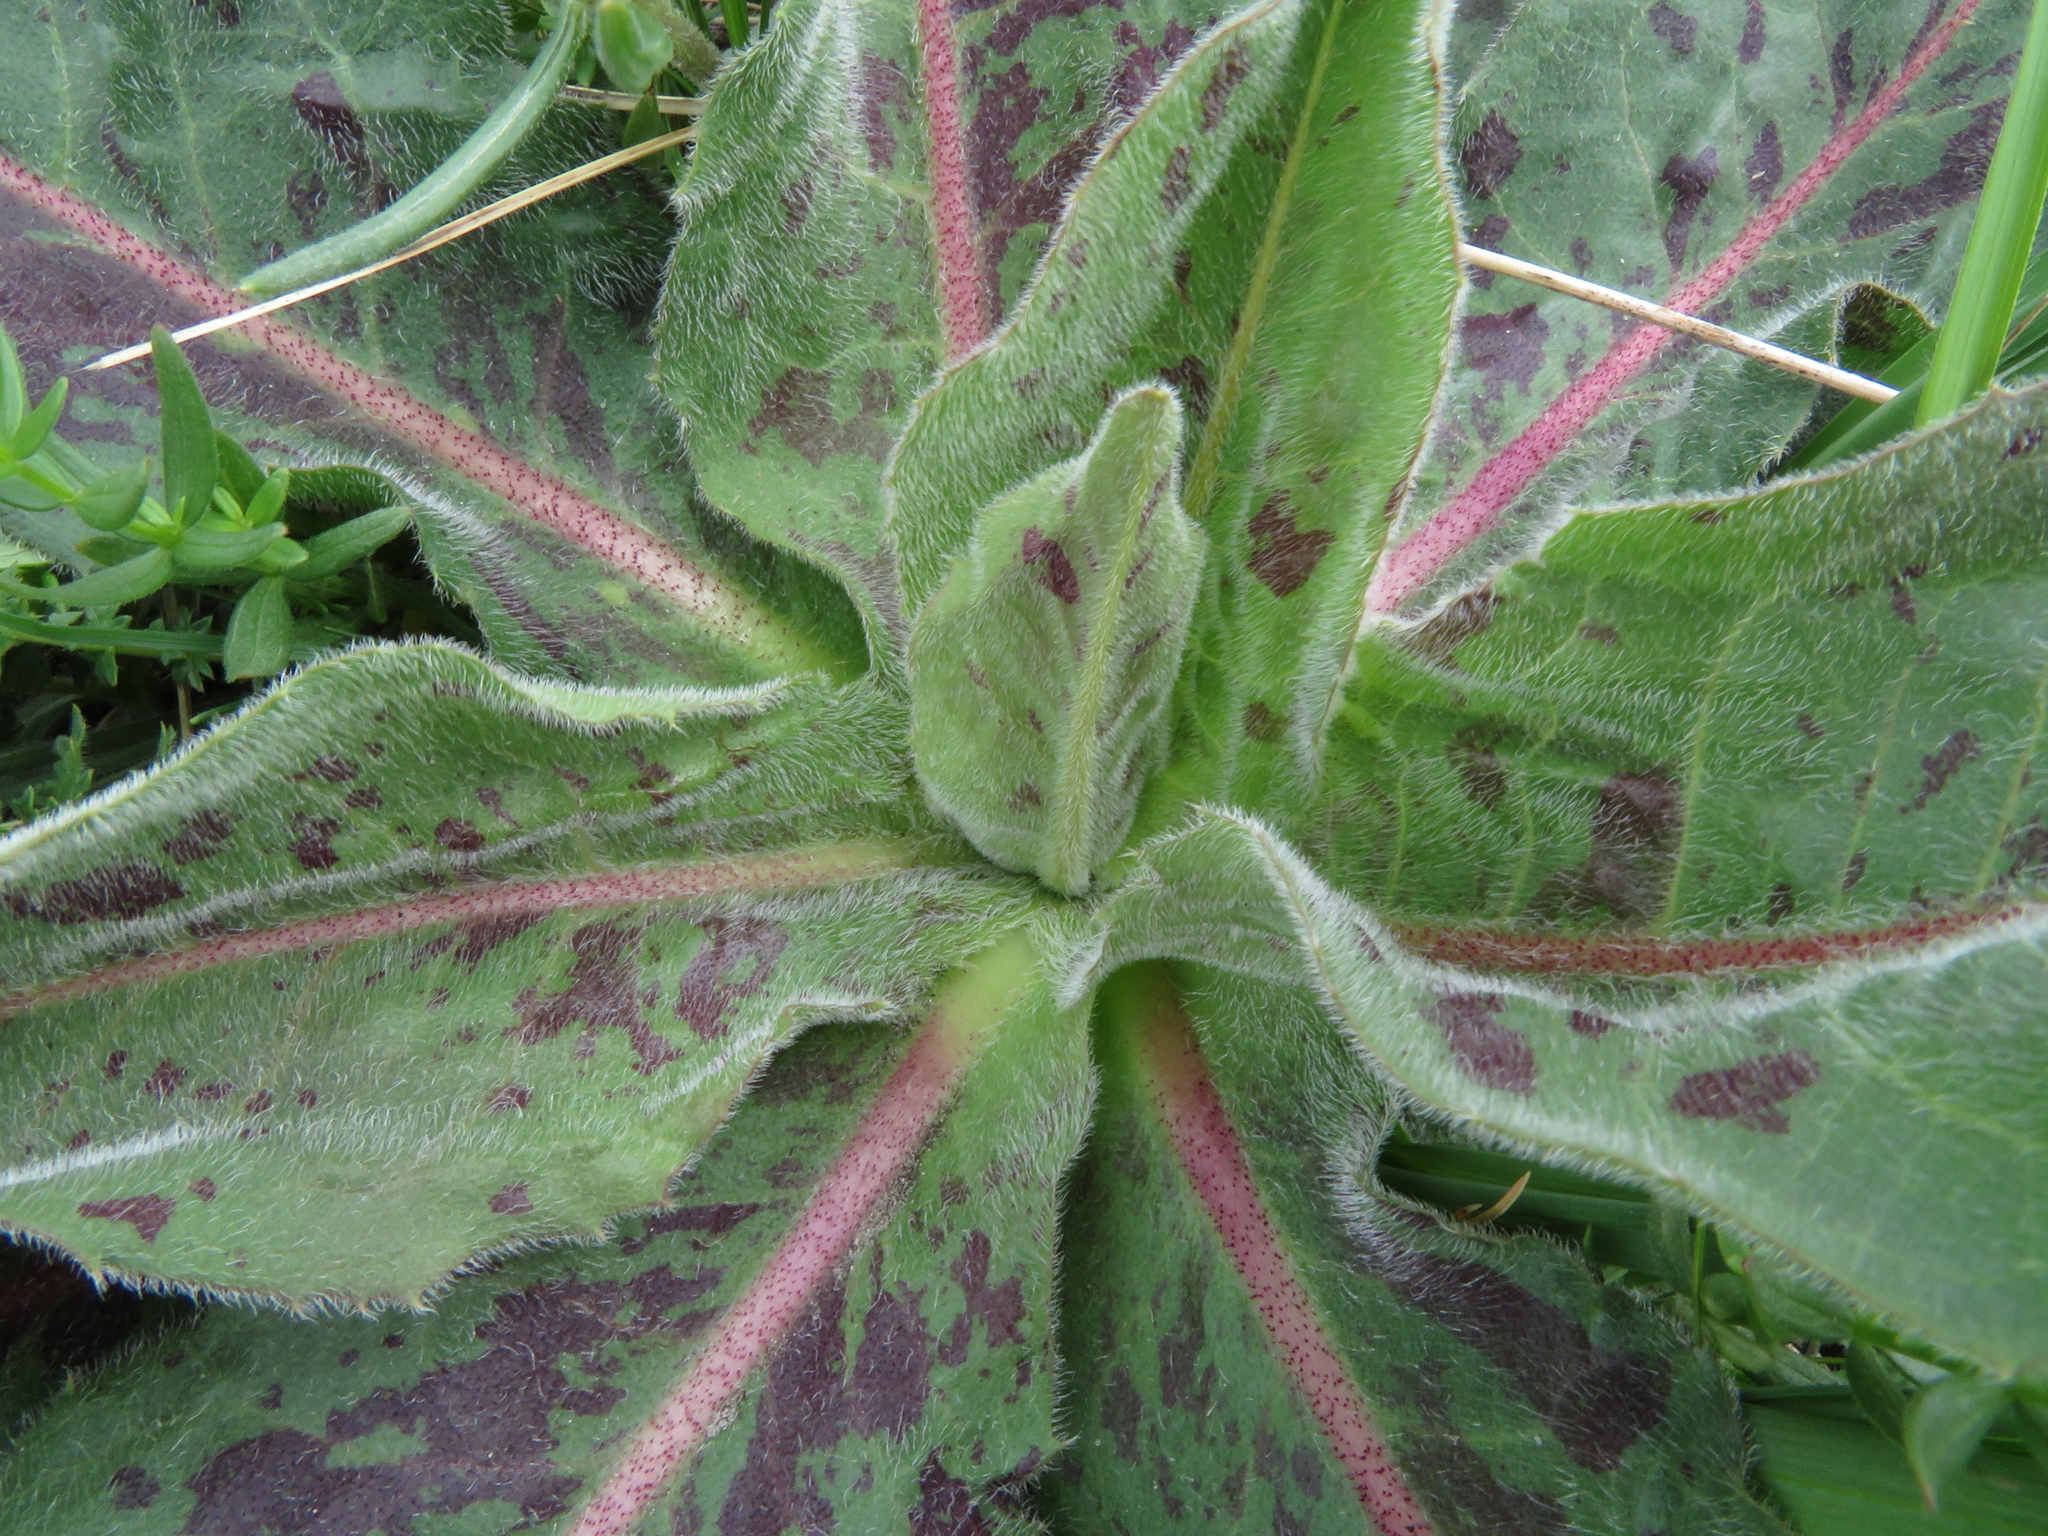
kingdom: Plantae
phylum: Tracheophyta
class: Magnoliopsida
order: Asterales
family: Asteraceae
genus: Trommsdorffia
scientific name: Trommsdorffia maculata
